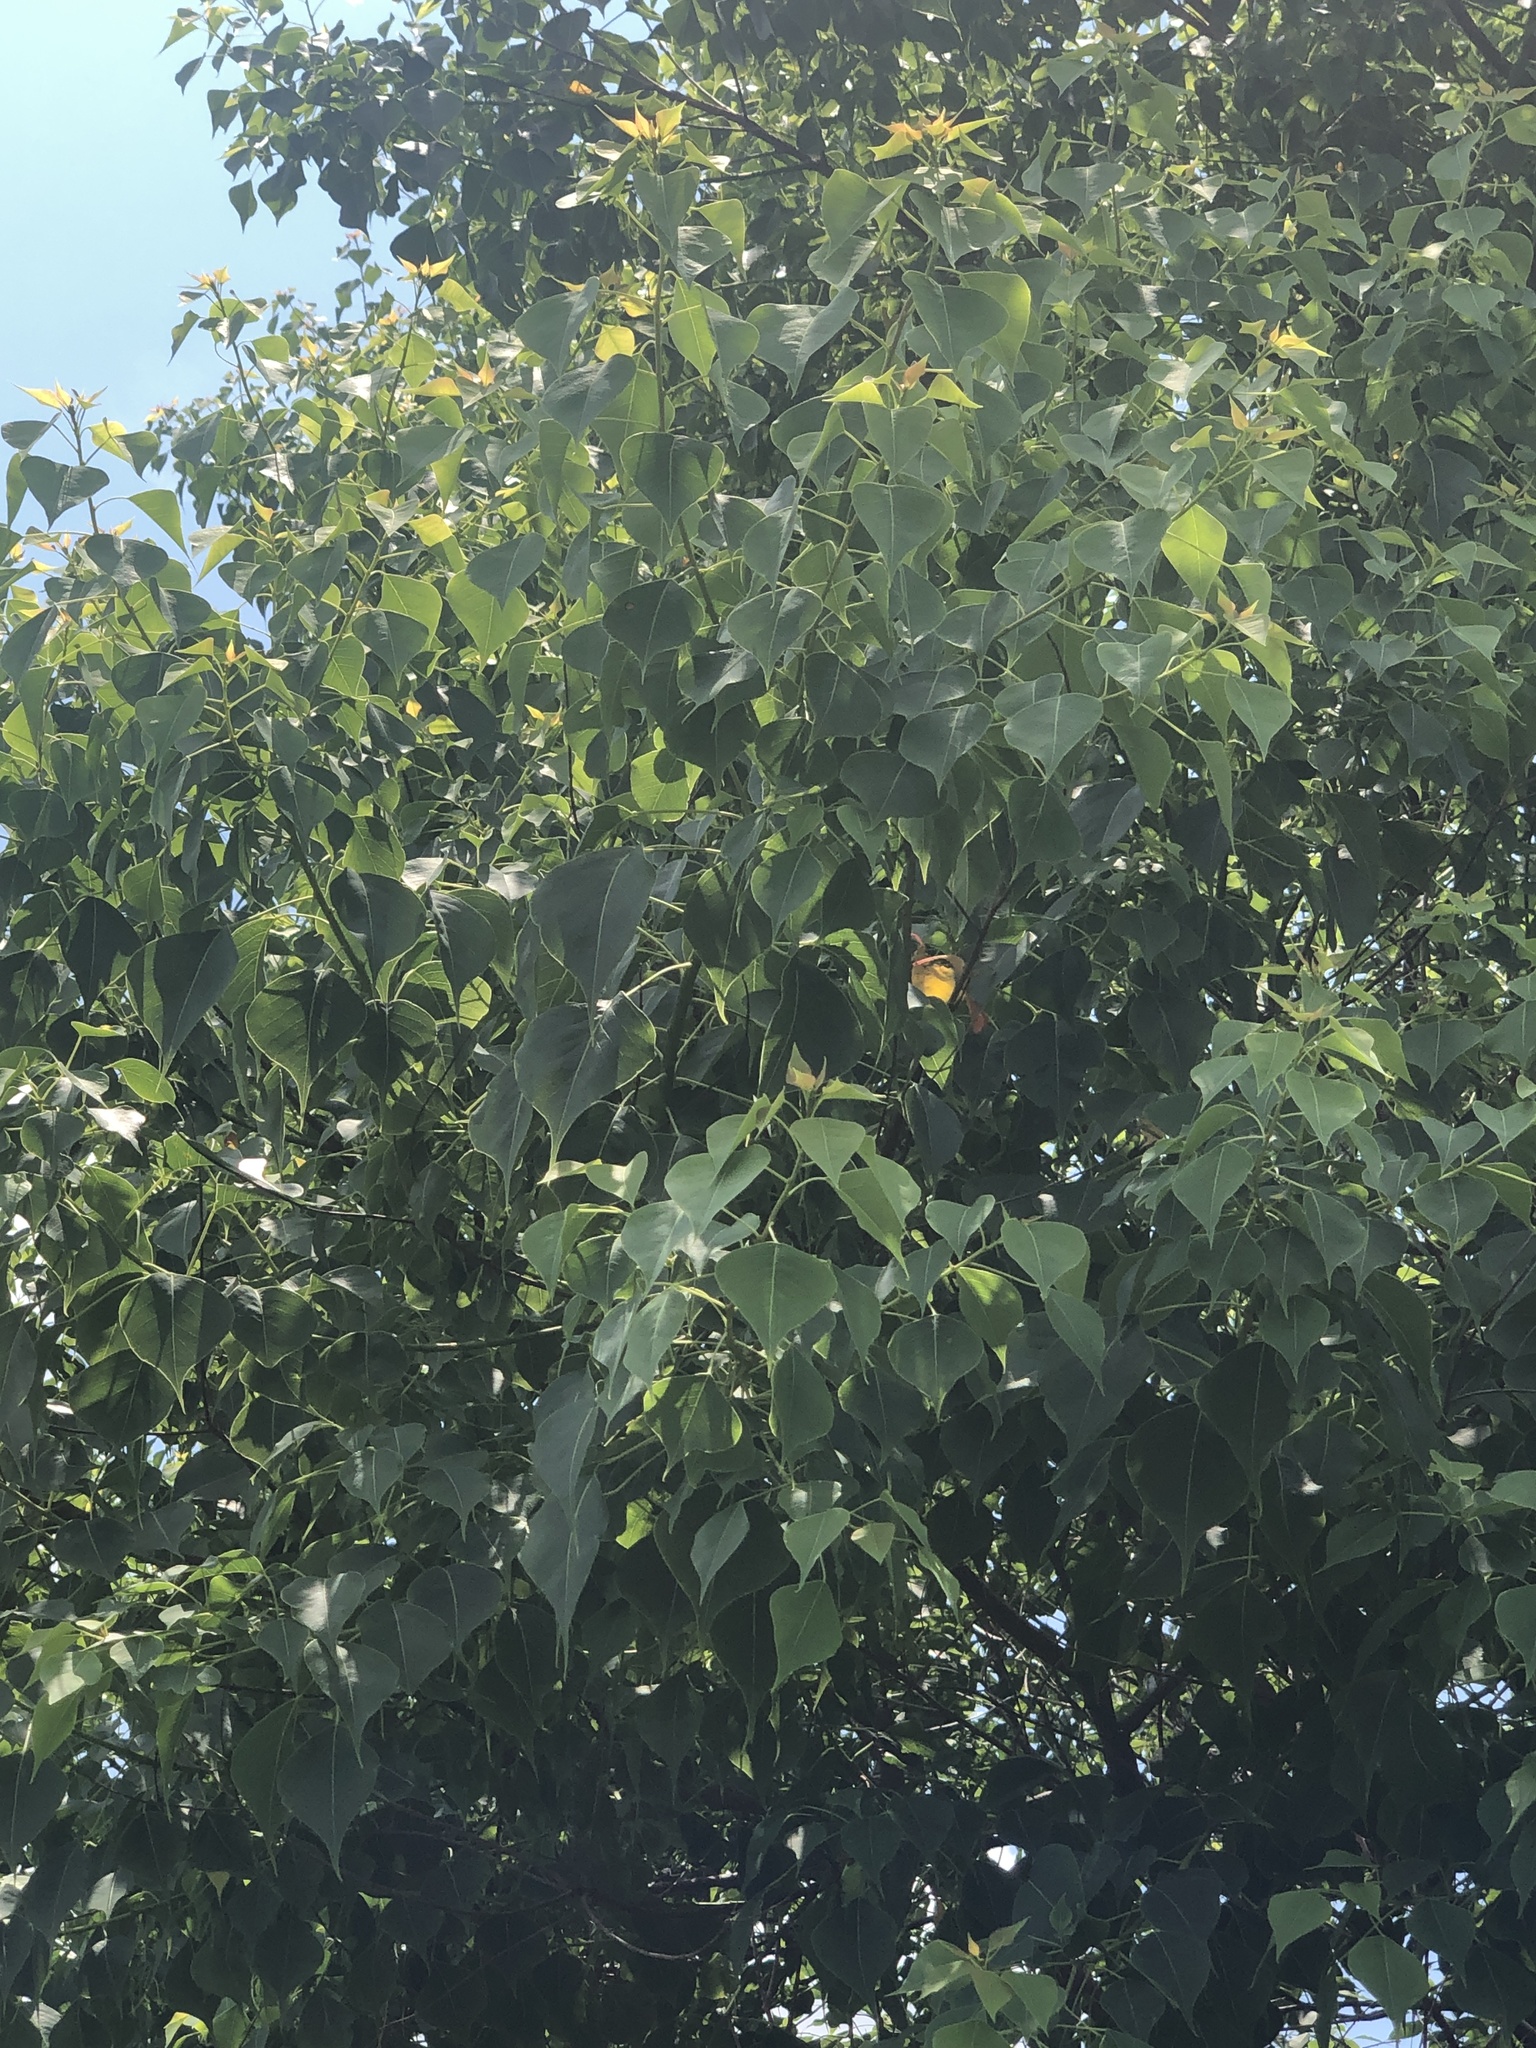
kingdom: Plantae
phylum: Tracheophyta
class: Magnoliopsida
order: Malpighiales
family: Euphorbiaceae
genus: Triadica
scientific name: Triadica sebifera
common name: Chinese tallow
